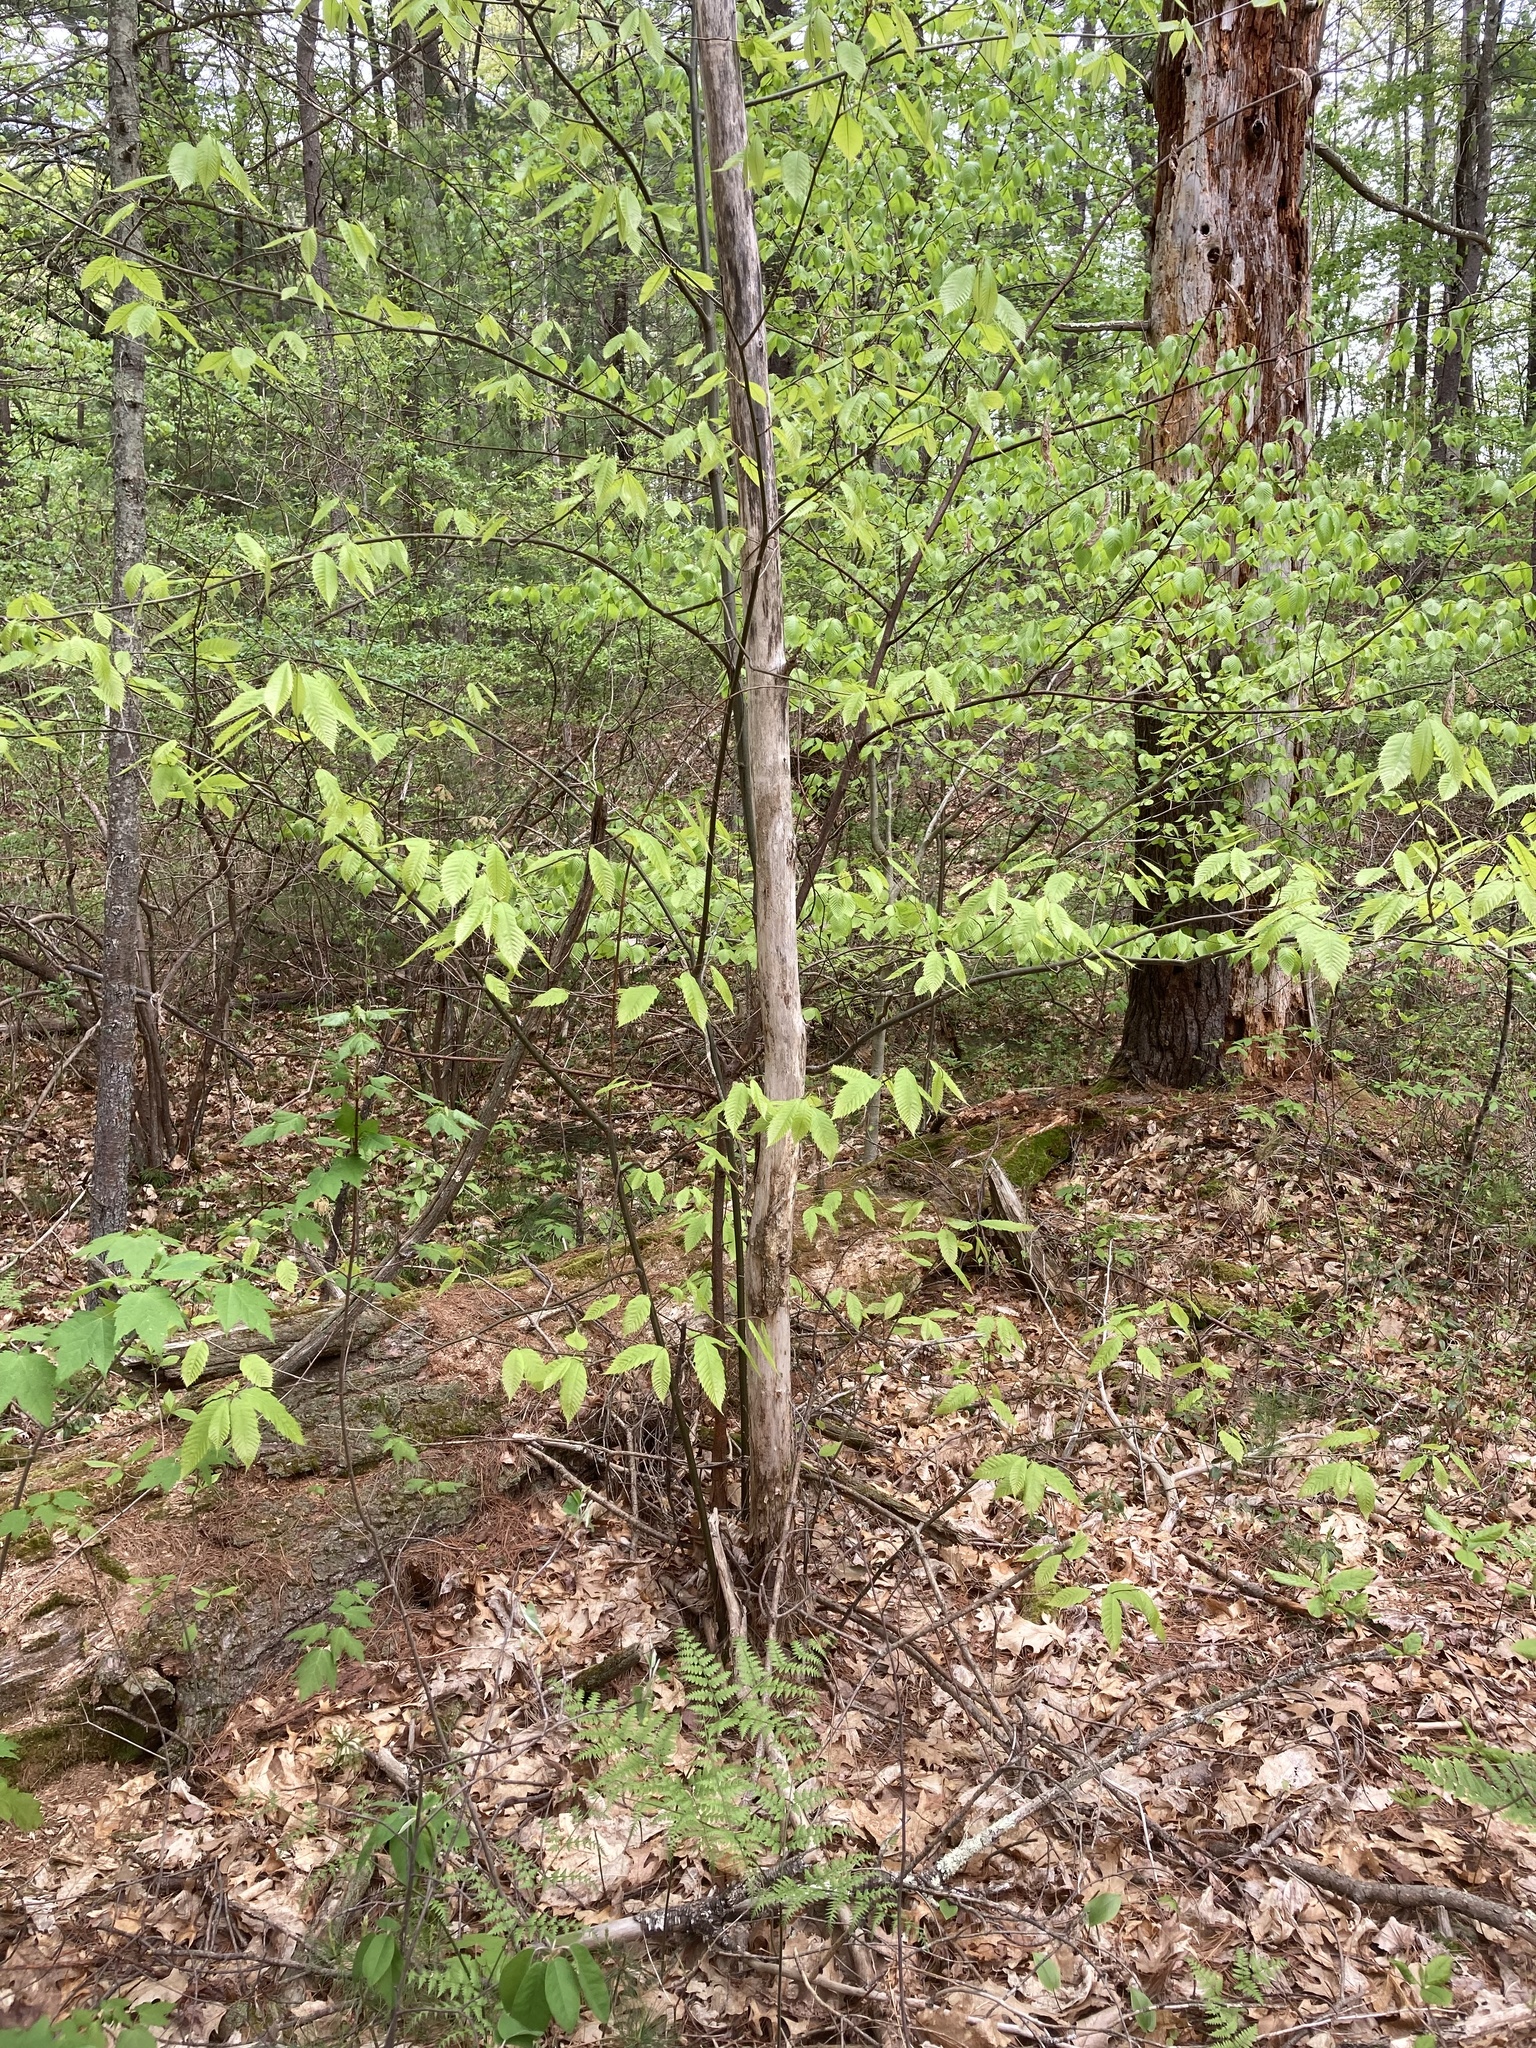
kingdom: Plantae
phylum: Tracheophyta
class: Magnoliopsida
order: Fagales
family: Fagaceae
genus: Castanea
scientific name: Castanea dentata
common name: American chestnut
